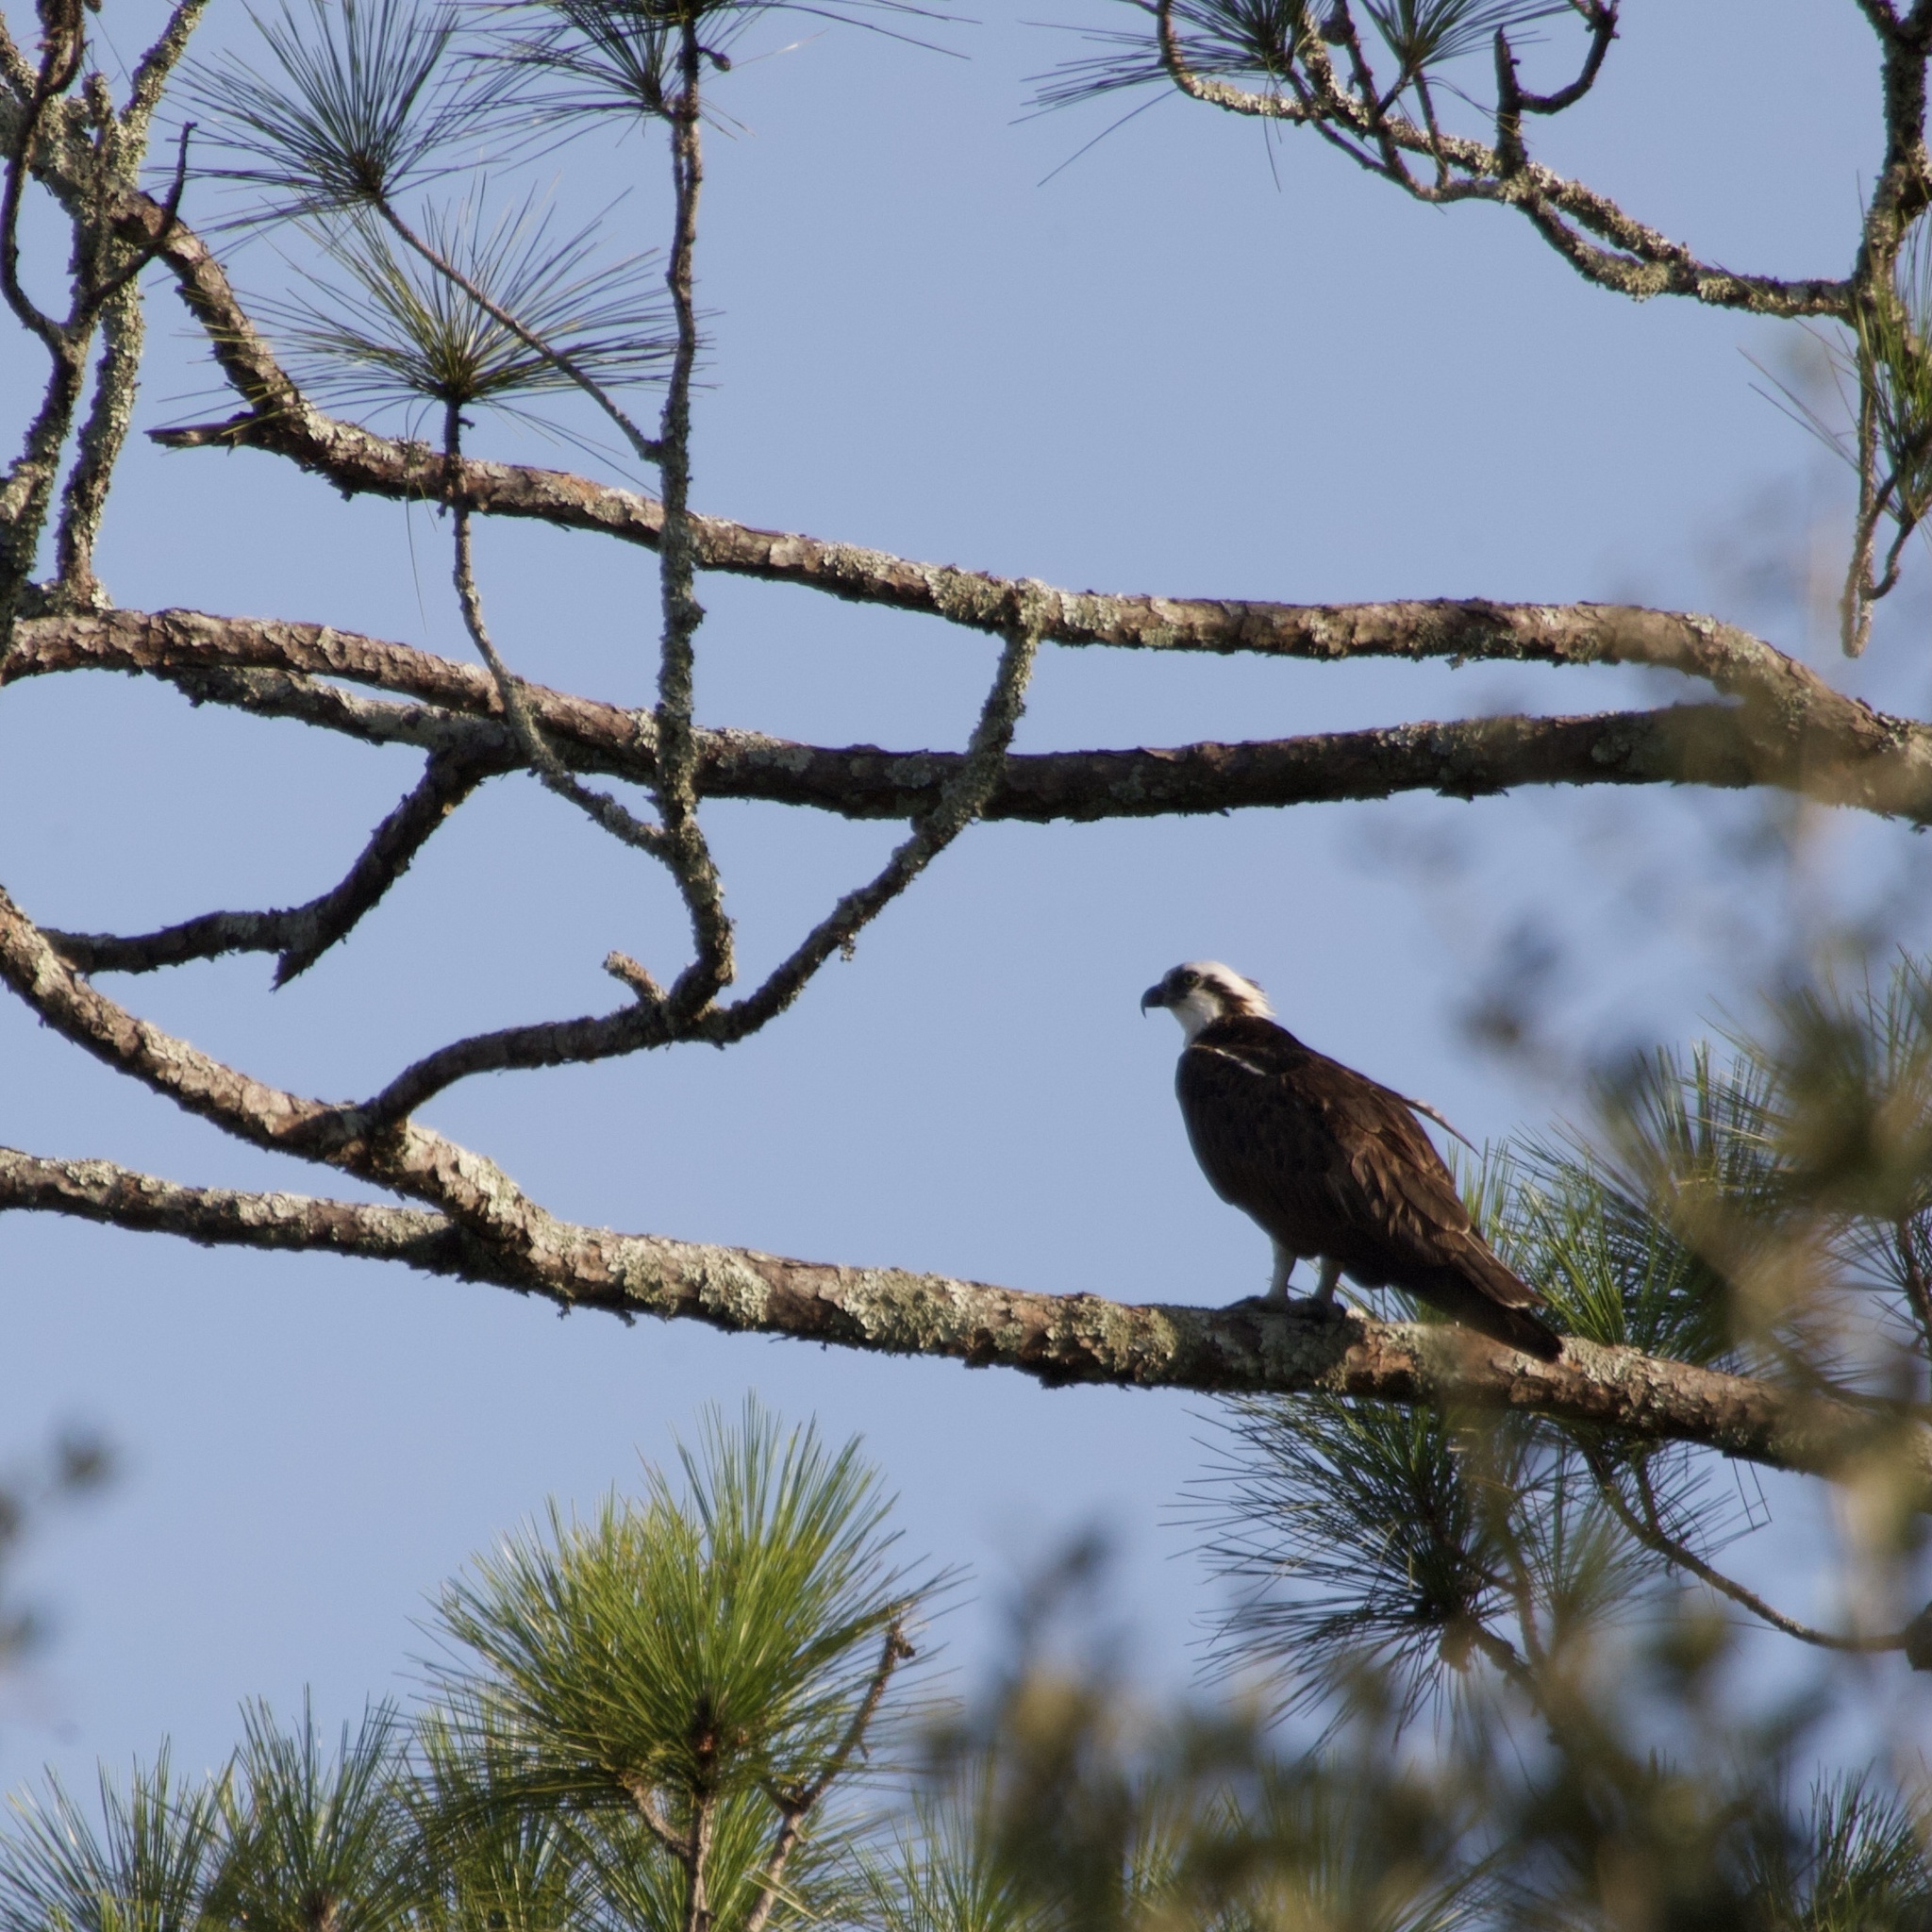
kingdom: Animalia
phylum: Chordata
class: Aves
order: Accipitriformes
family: Pandionidae
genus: Pandion
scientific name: Pandion haliaetus
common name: Osprey
